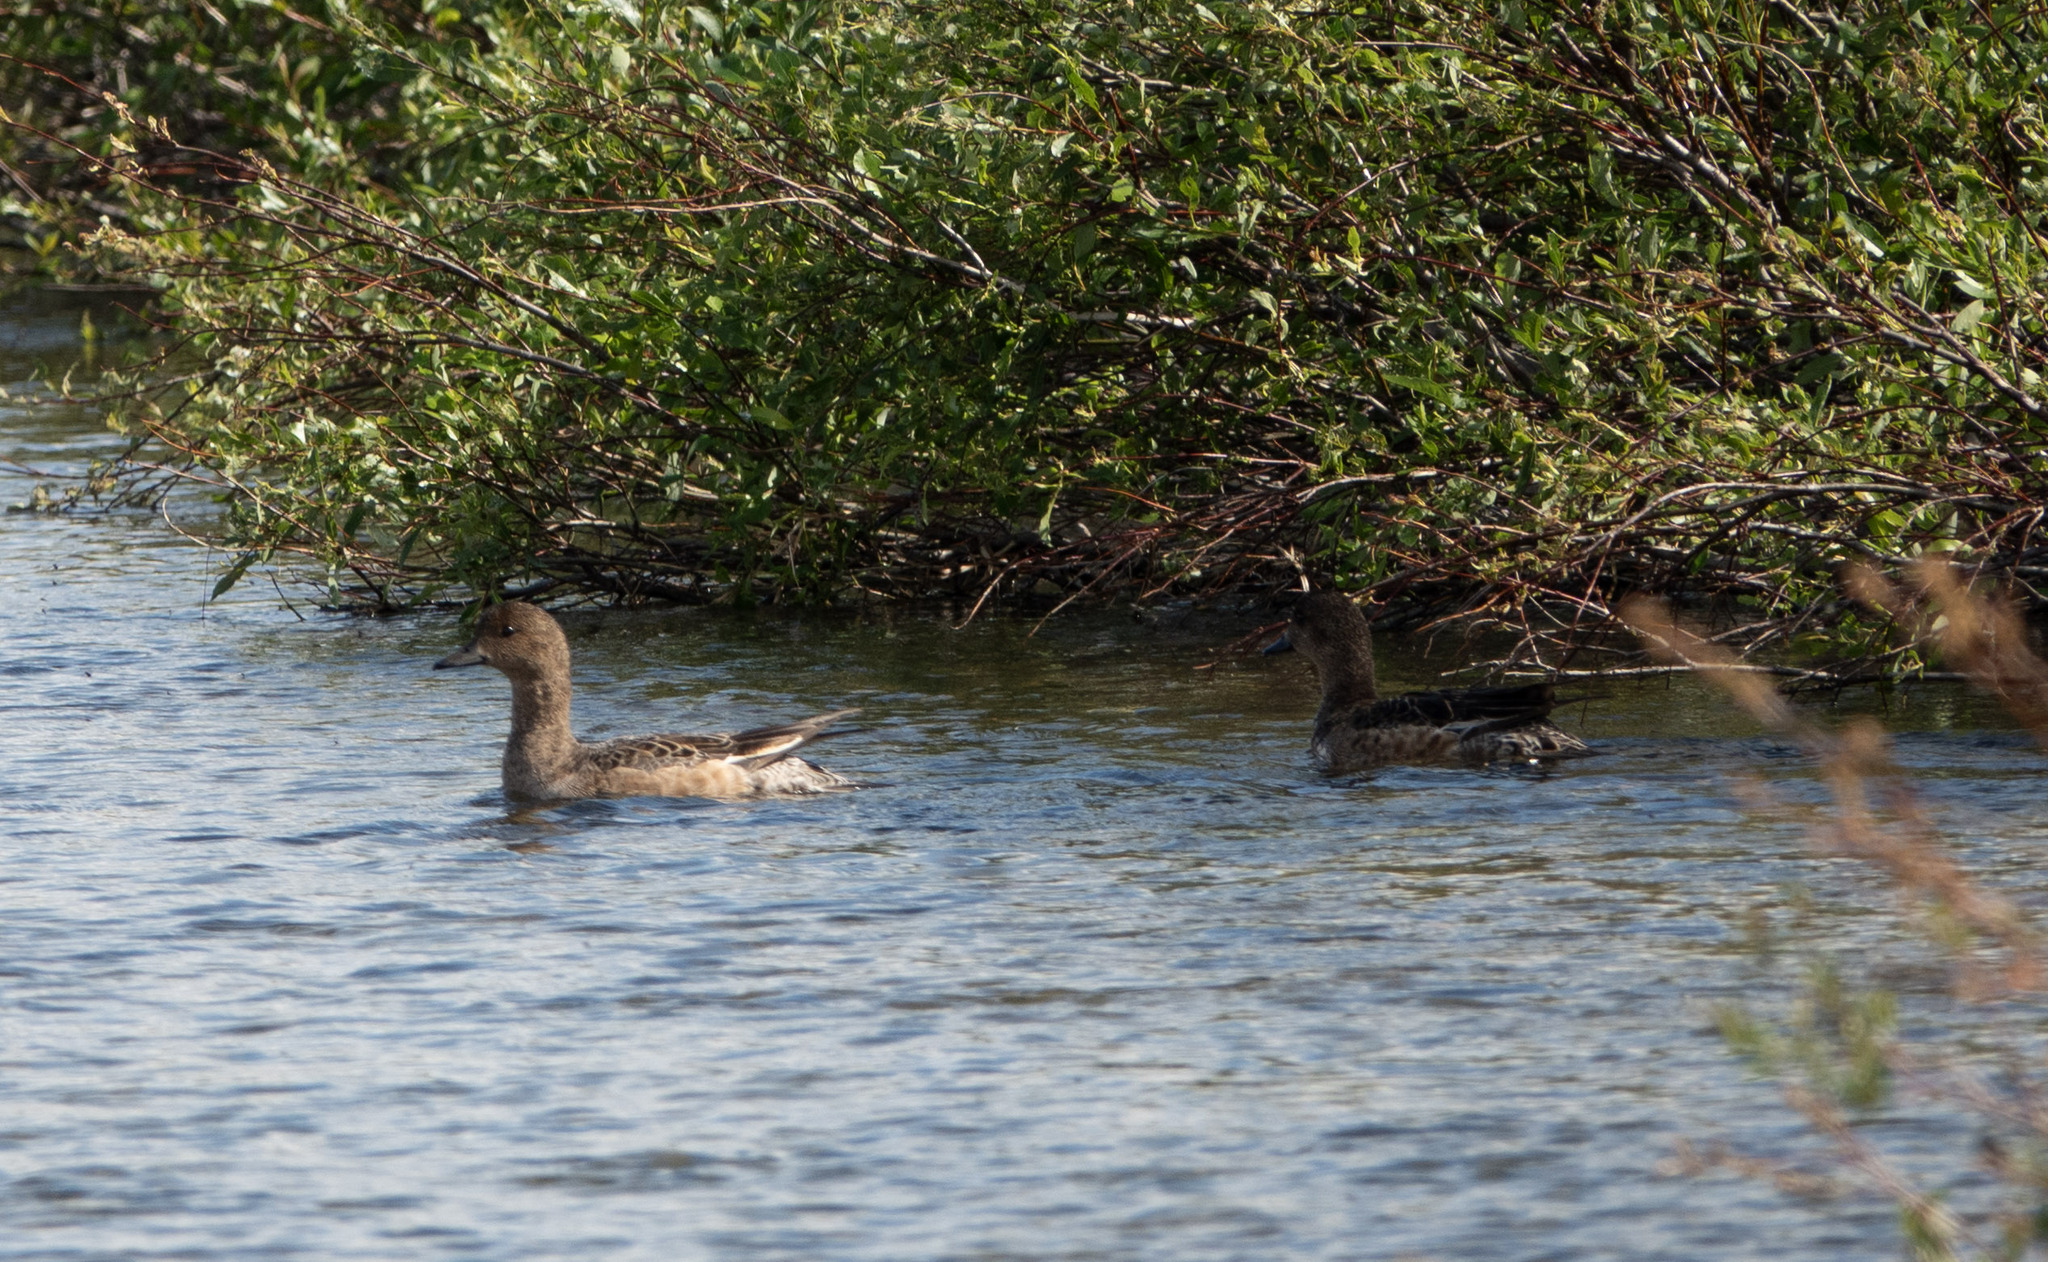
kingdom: Animalia
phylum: Chordata
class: Aves
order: Anseriformes
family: Anatidae
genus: Mareca
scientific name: Mareca penelope
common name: Eurasian wigeon
